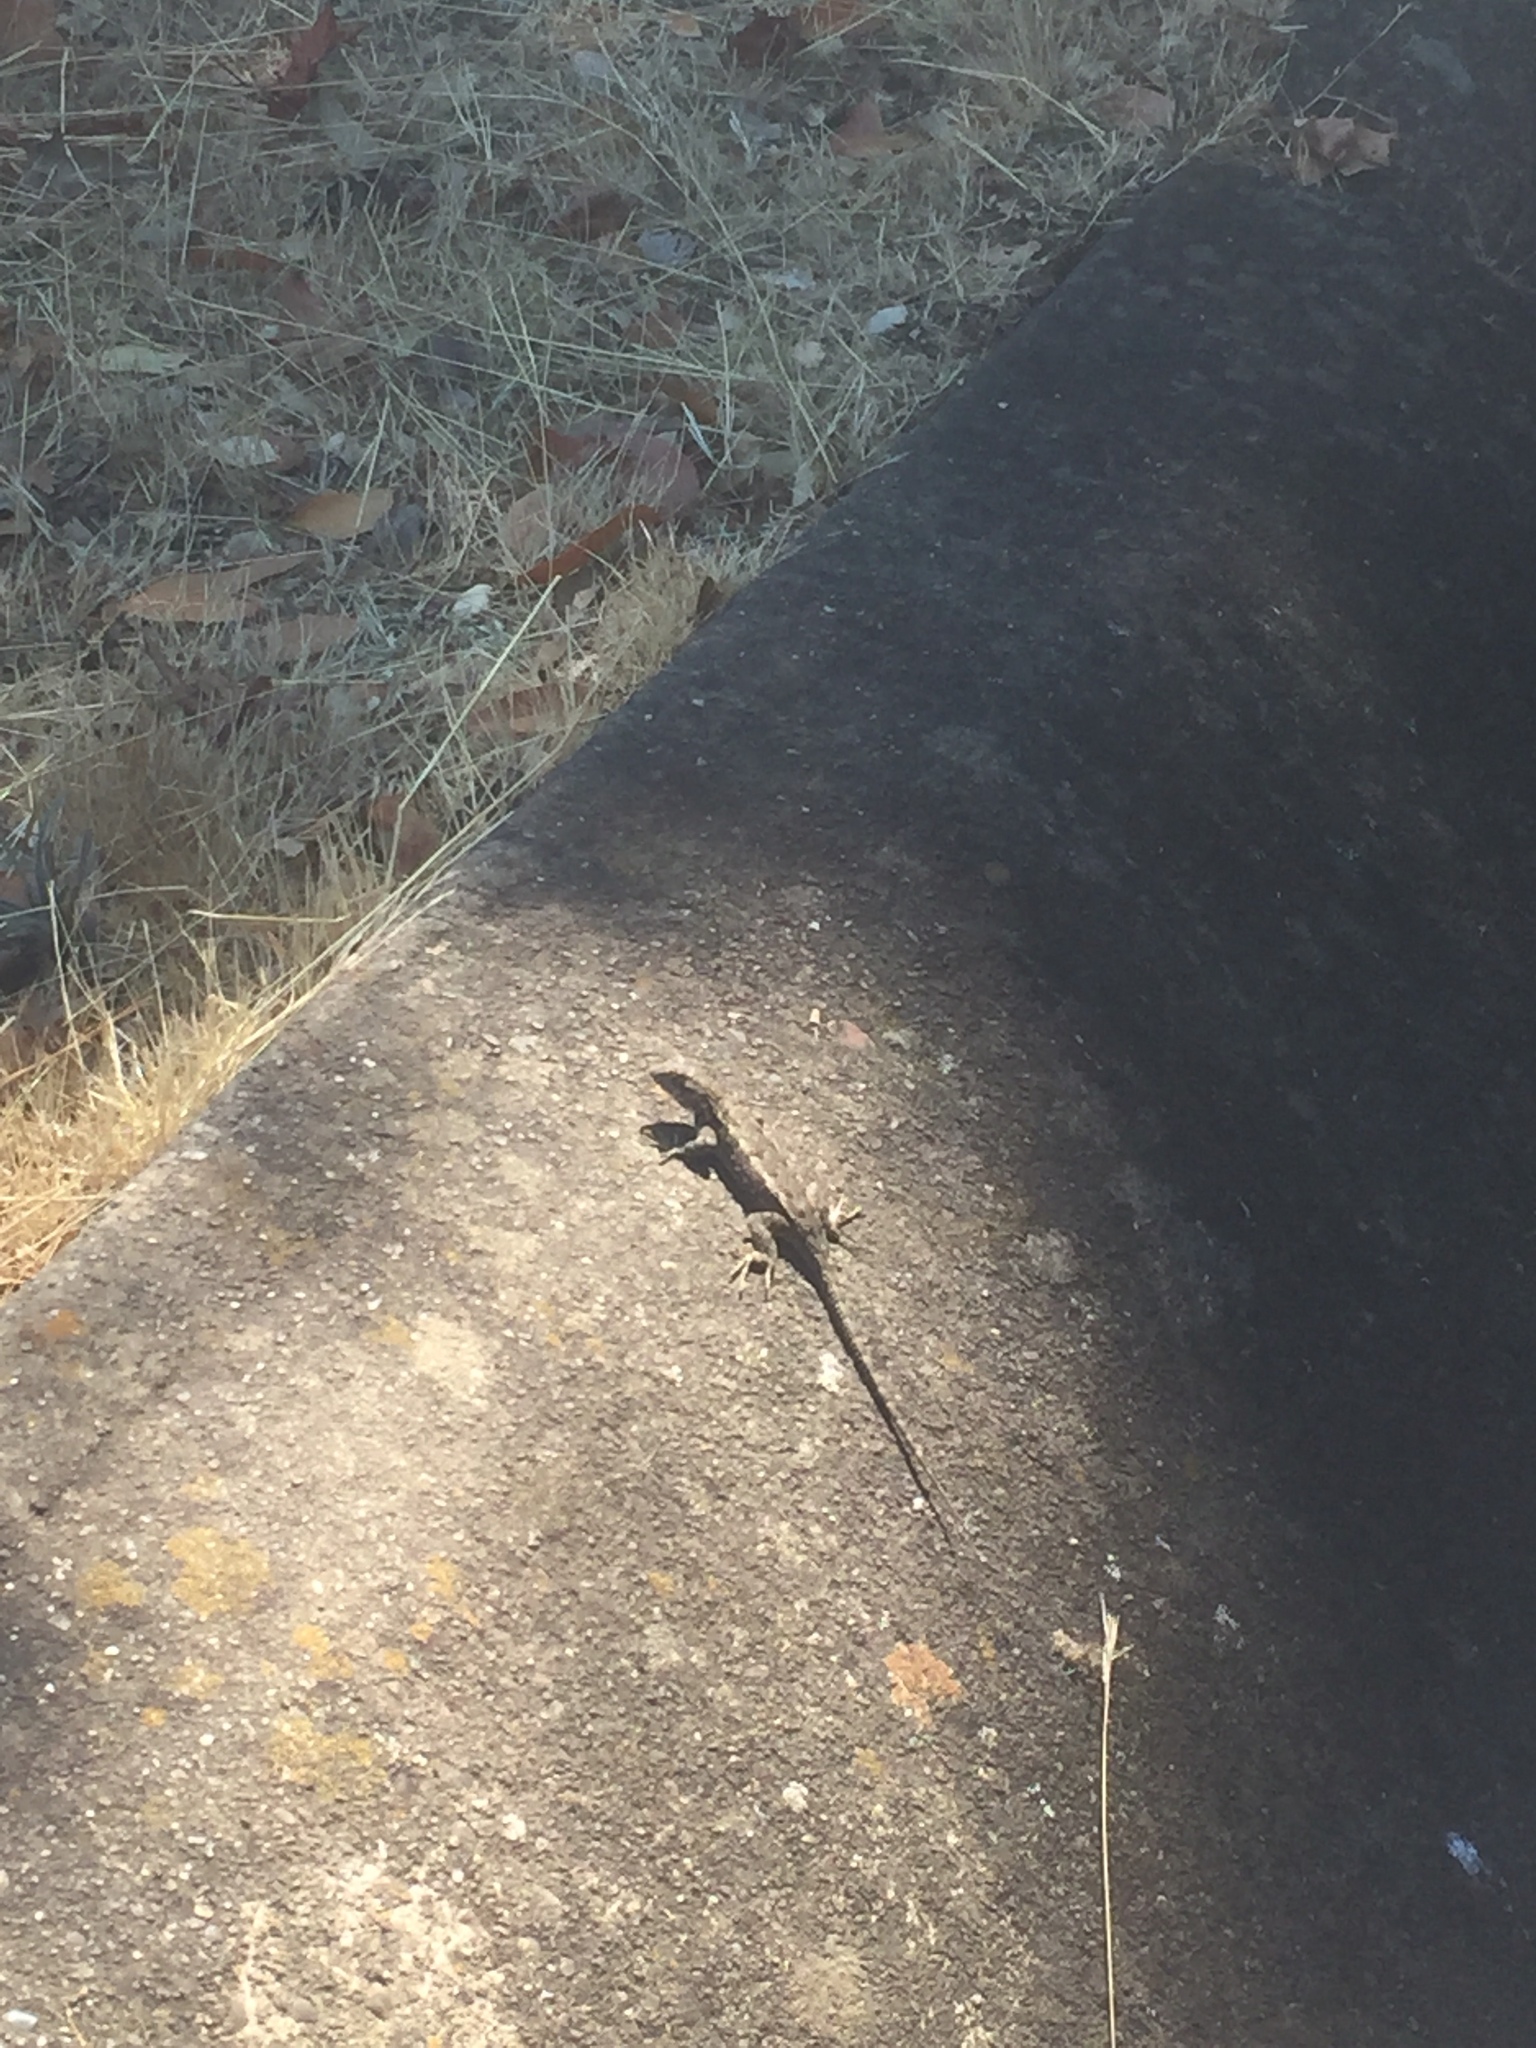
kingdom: Animalia
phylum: Chordata
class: Squamata
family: Phrynosomatidae
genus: Sceloporus
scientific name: Sceloporus occidentalis
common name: Western fence lizard
